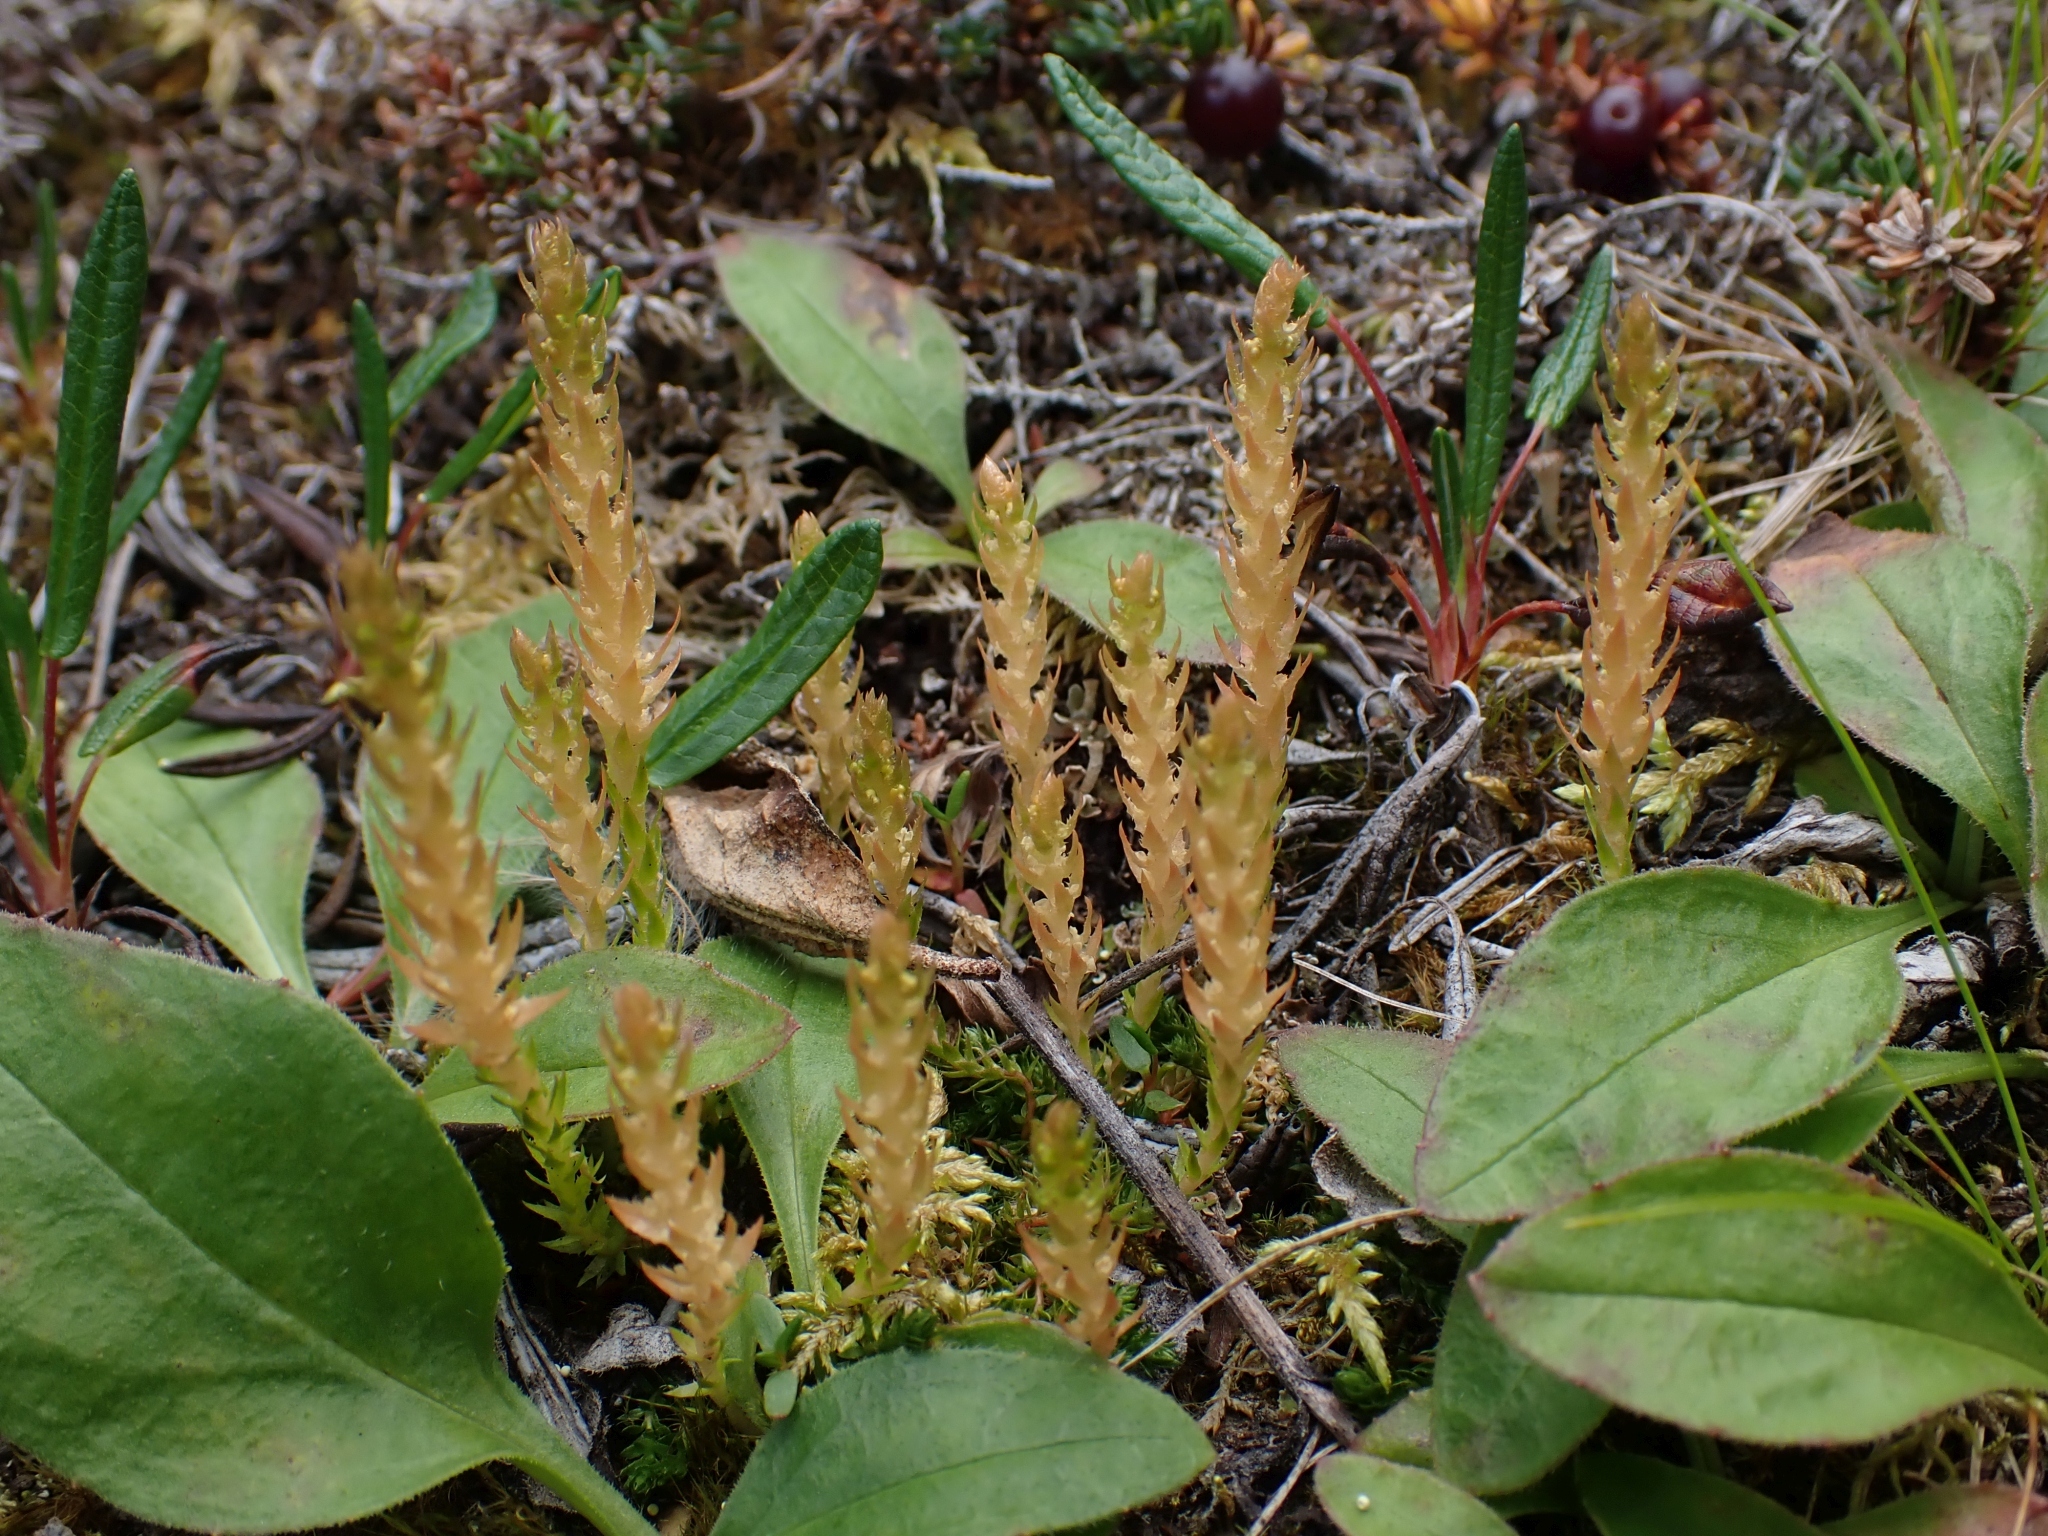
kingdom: Plantae
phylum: Tracheophyta
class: Lycopodiopsida
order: Selaginellales
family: Selaginellaceae
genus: Selaginella
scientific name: Selaginella selaginoides
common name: Prickly mountain-moss
